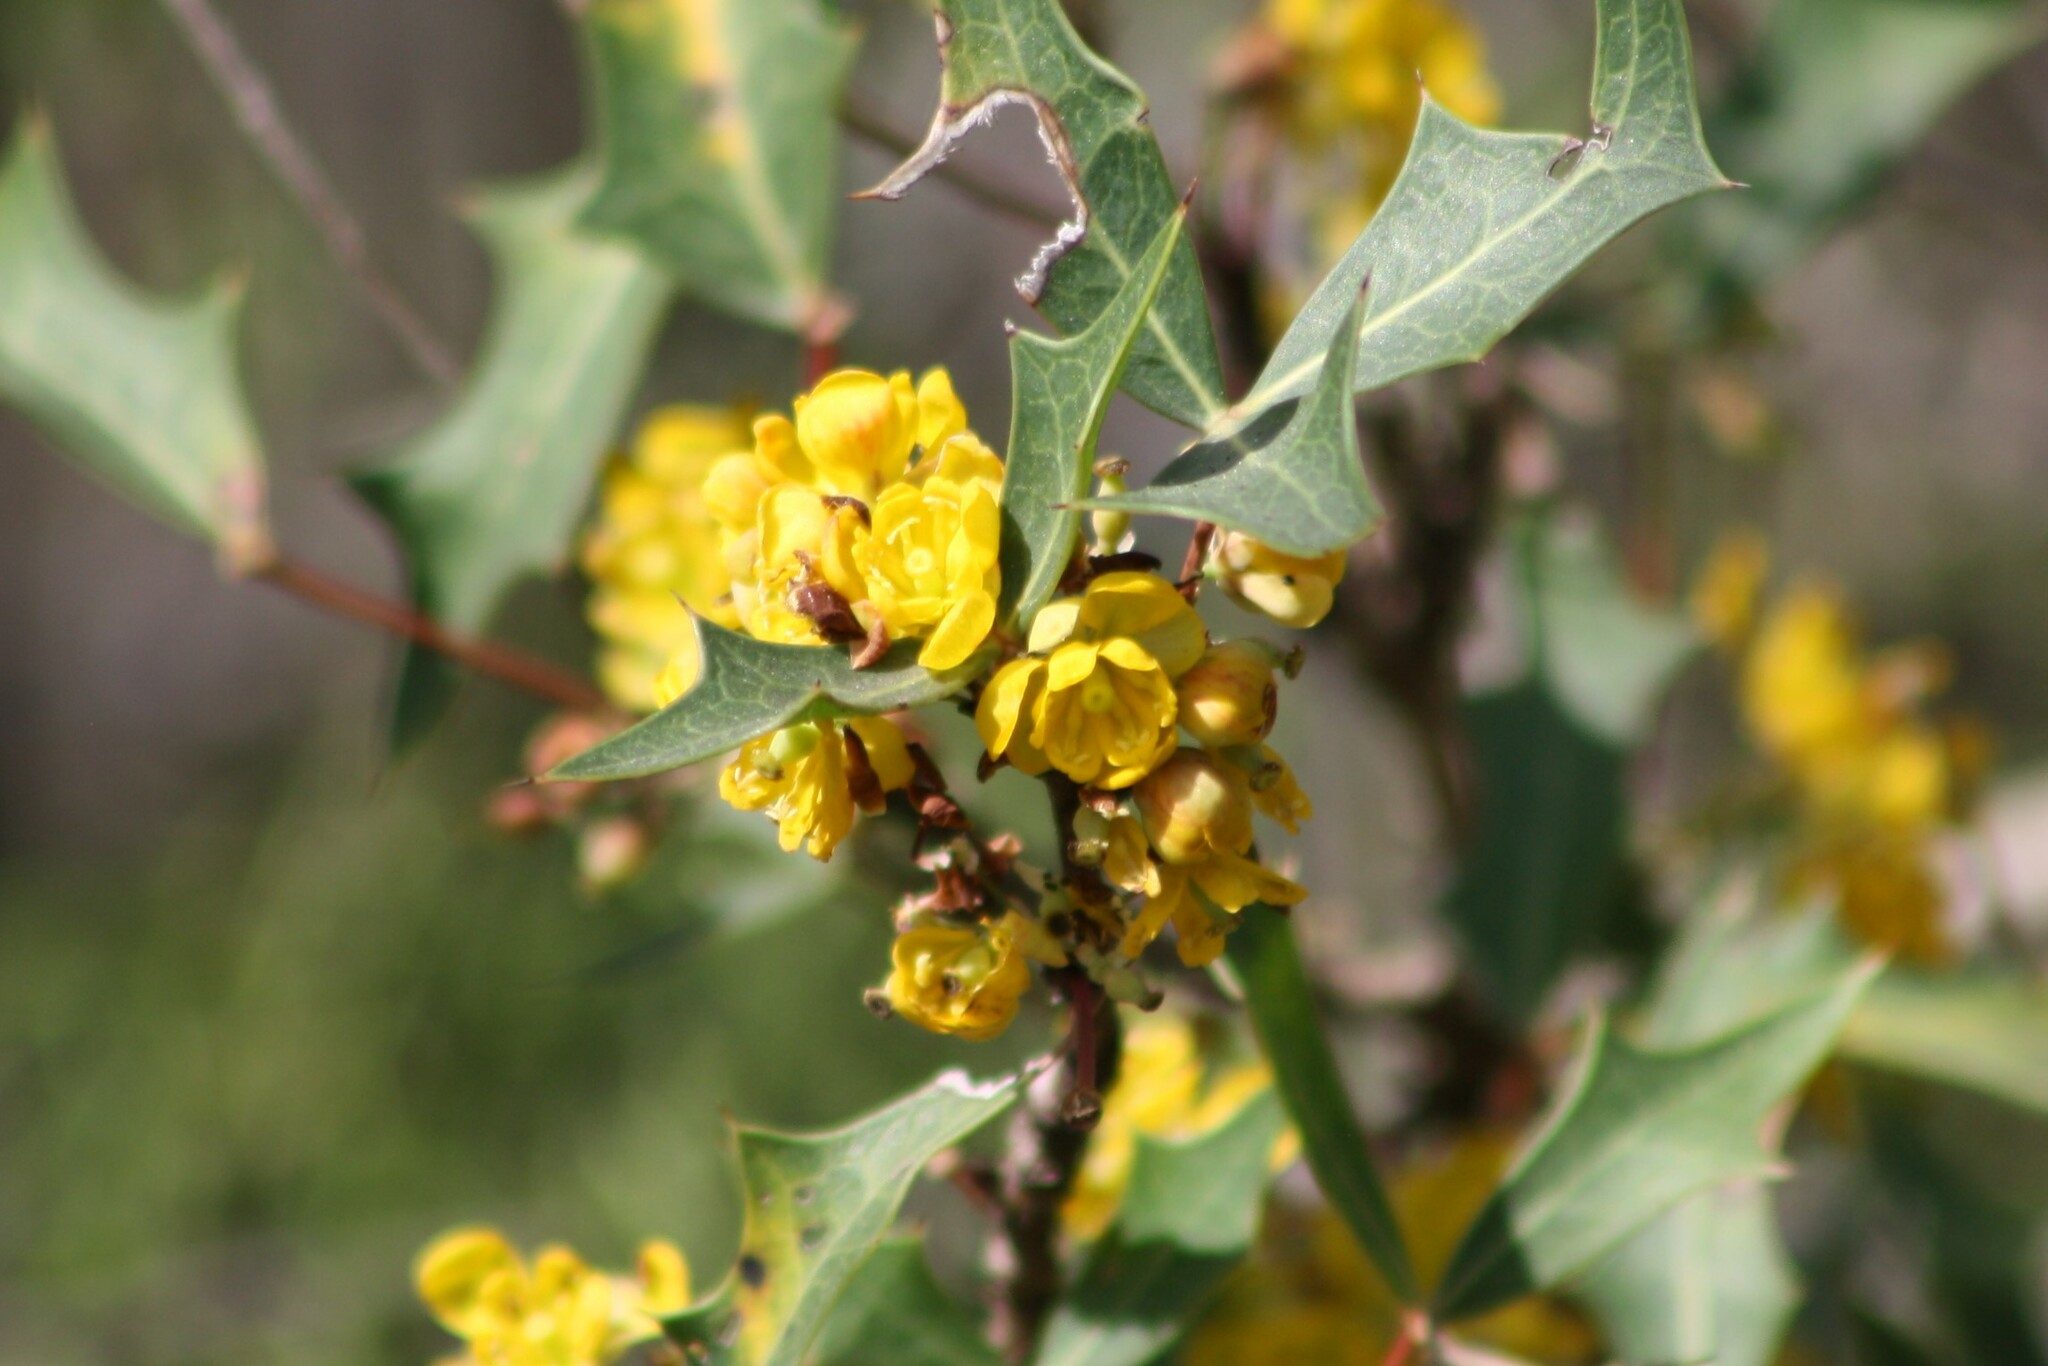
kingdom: Plantae
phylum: Tracheophyta
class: Magnoliopsida
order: Ranunculales
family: Berberidaceae
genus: Alloberberis
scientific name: Alloberberis trifoliolata
